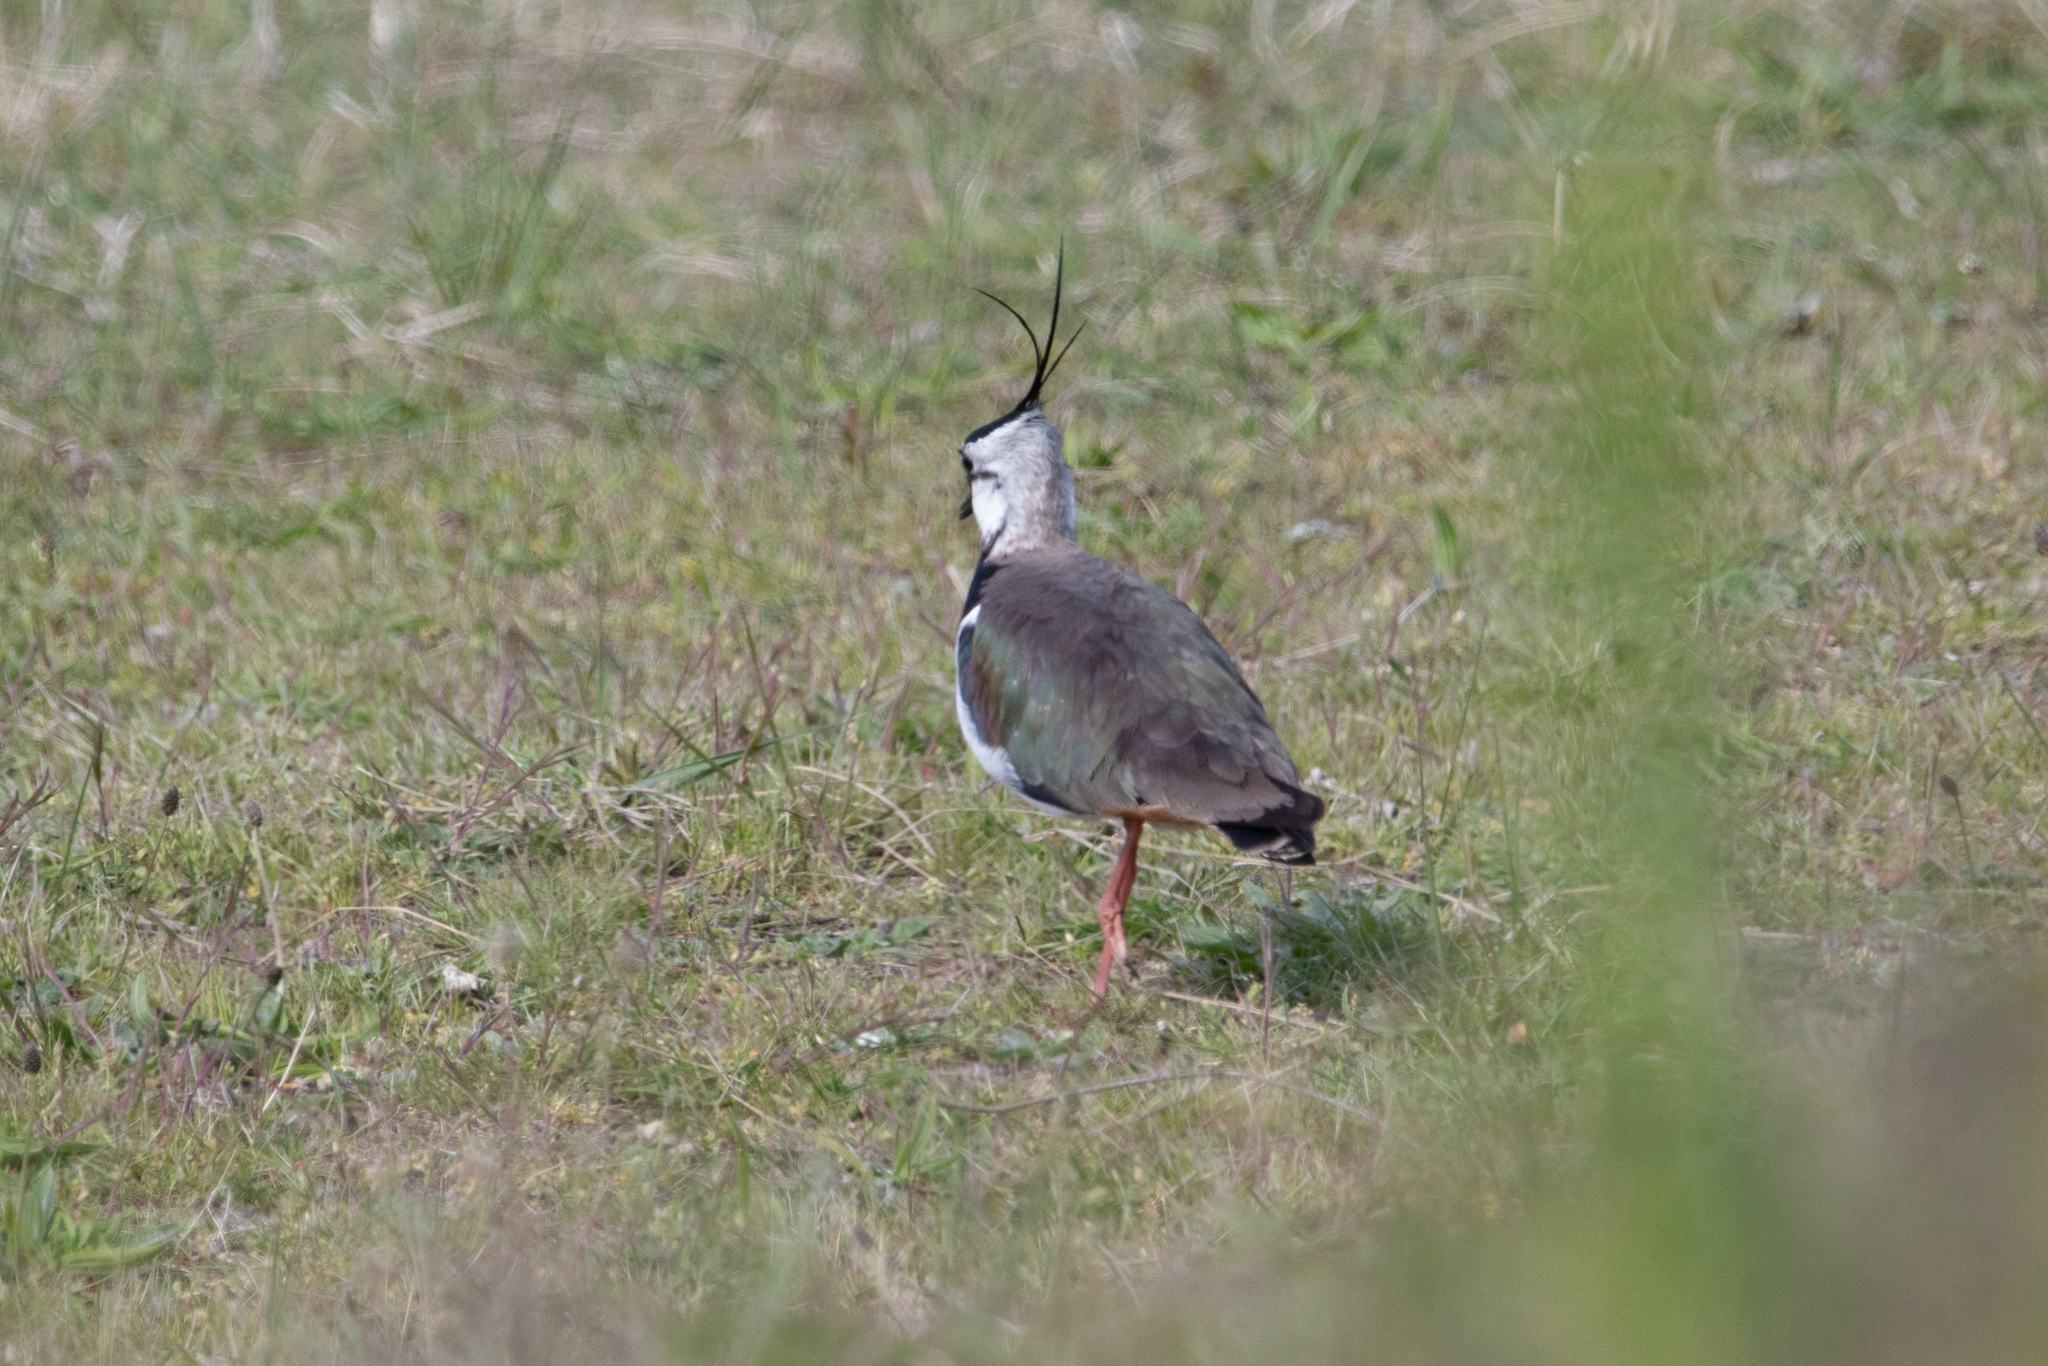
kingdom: Animalia
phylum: Chordata
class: Aves
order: Charadriiformes
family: Charadriidae
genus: Vanellus
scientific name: Vanellus vanellus
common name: Northern lapwing
